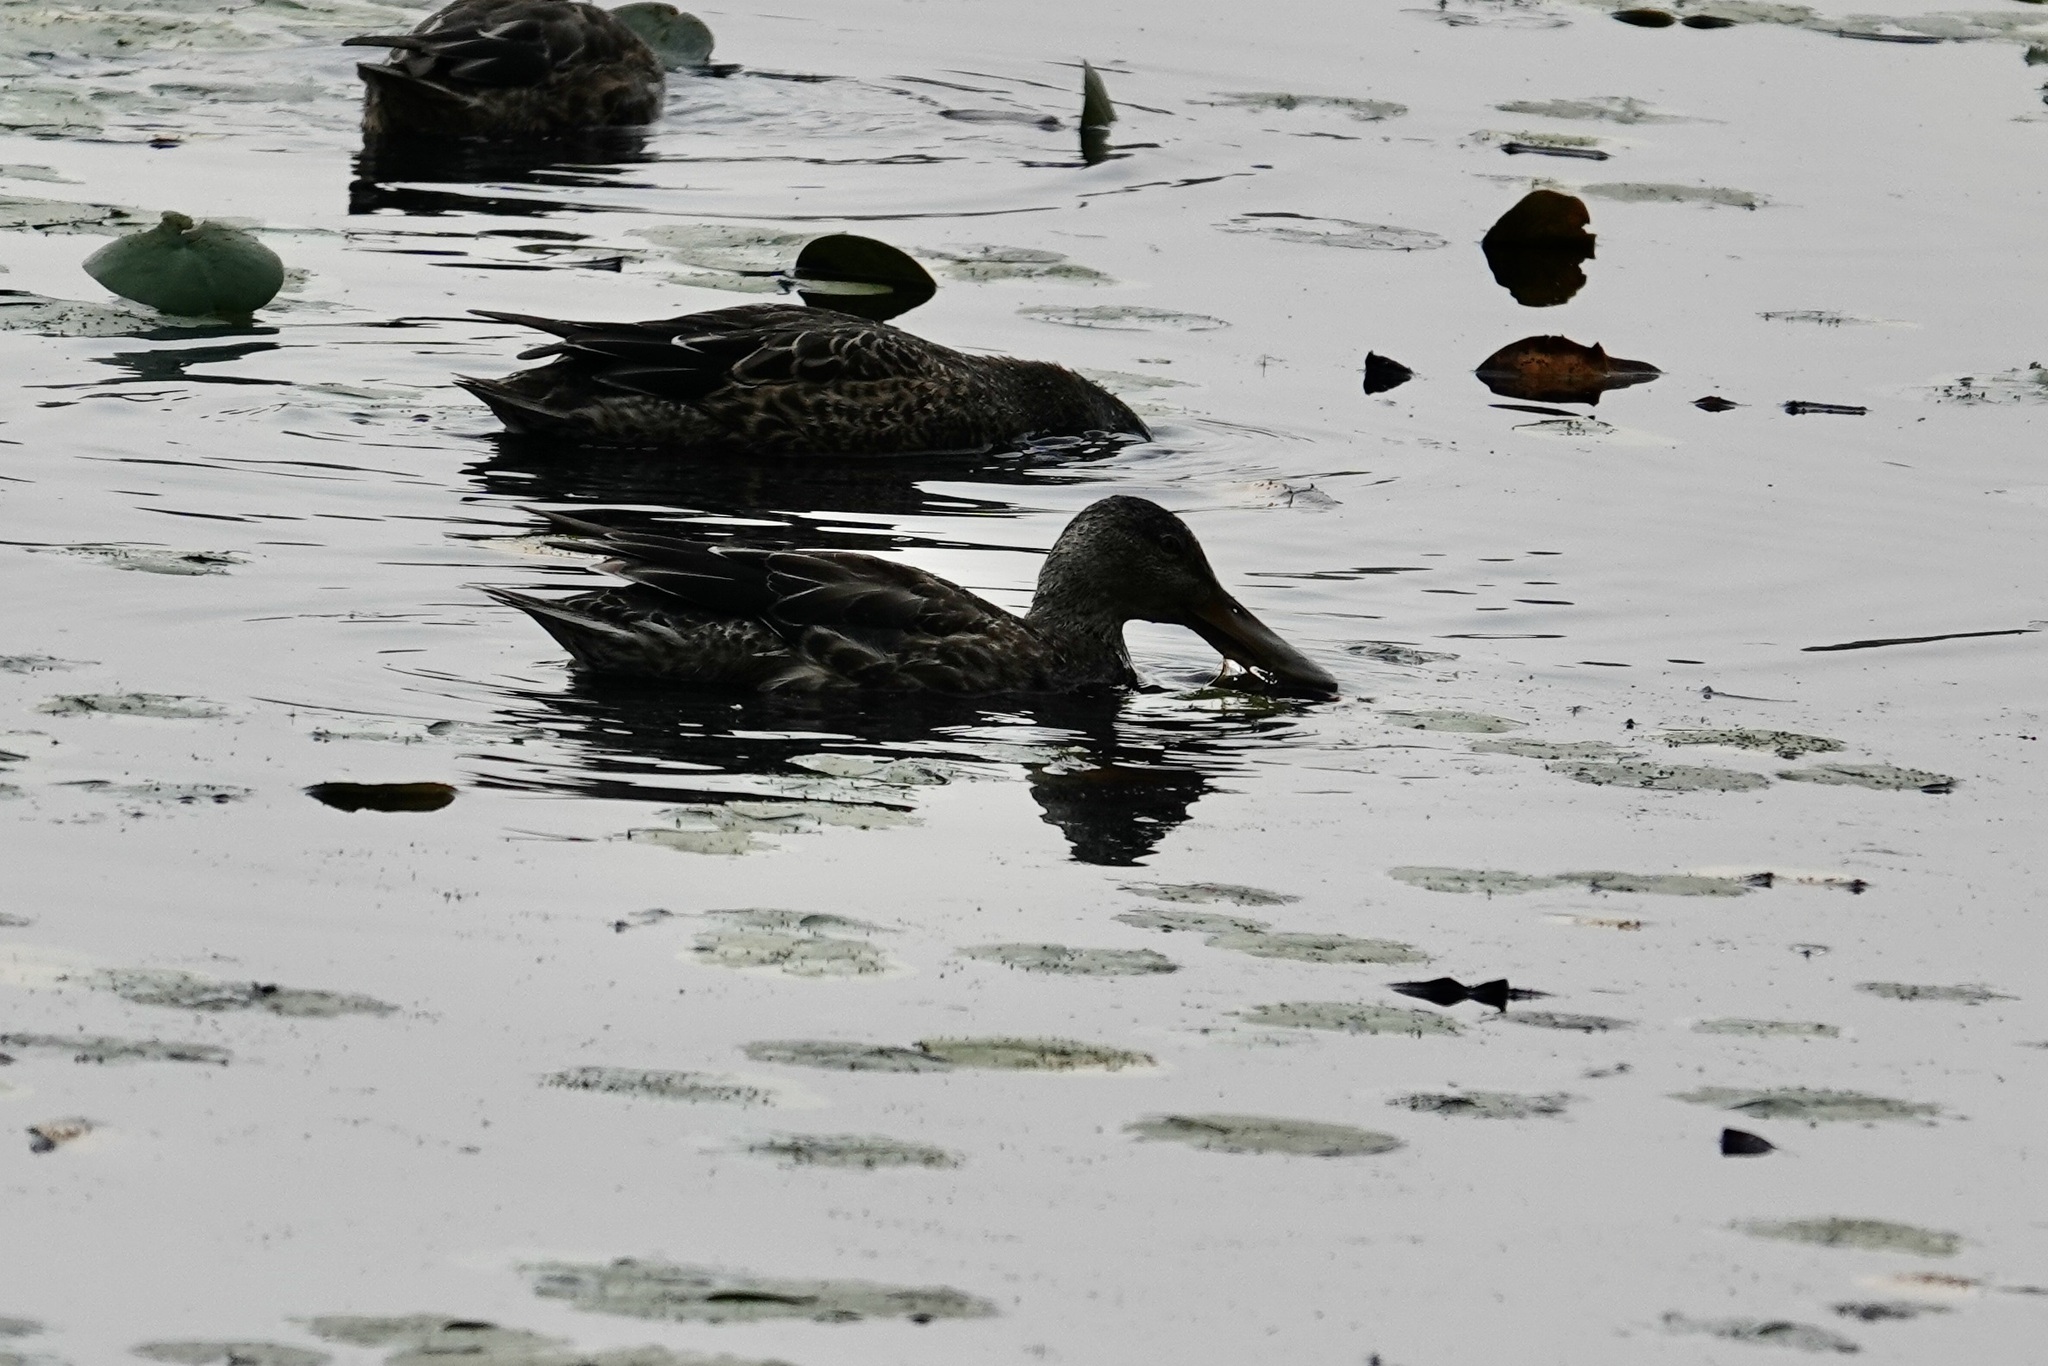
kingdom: Animalia
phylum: Chordata
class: Aves
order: Anseriformes
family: Anatidae
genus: Spatula
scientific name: Spatula clypeata
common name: Northern shoveler
